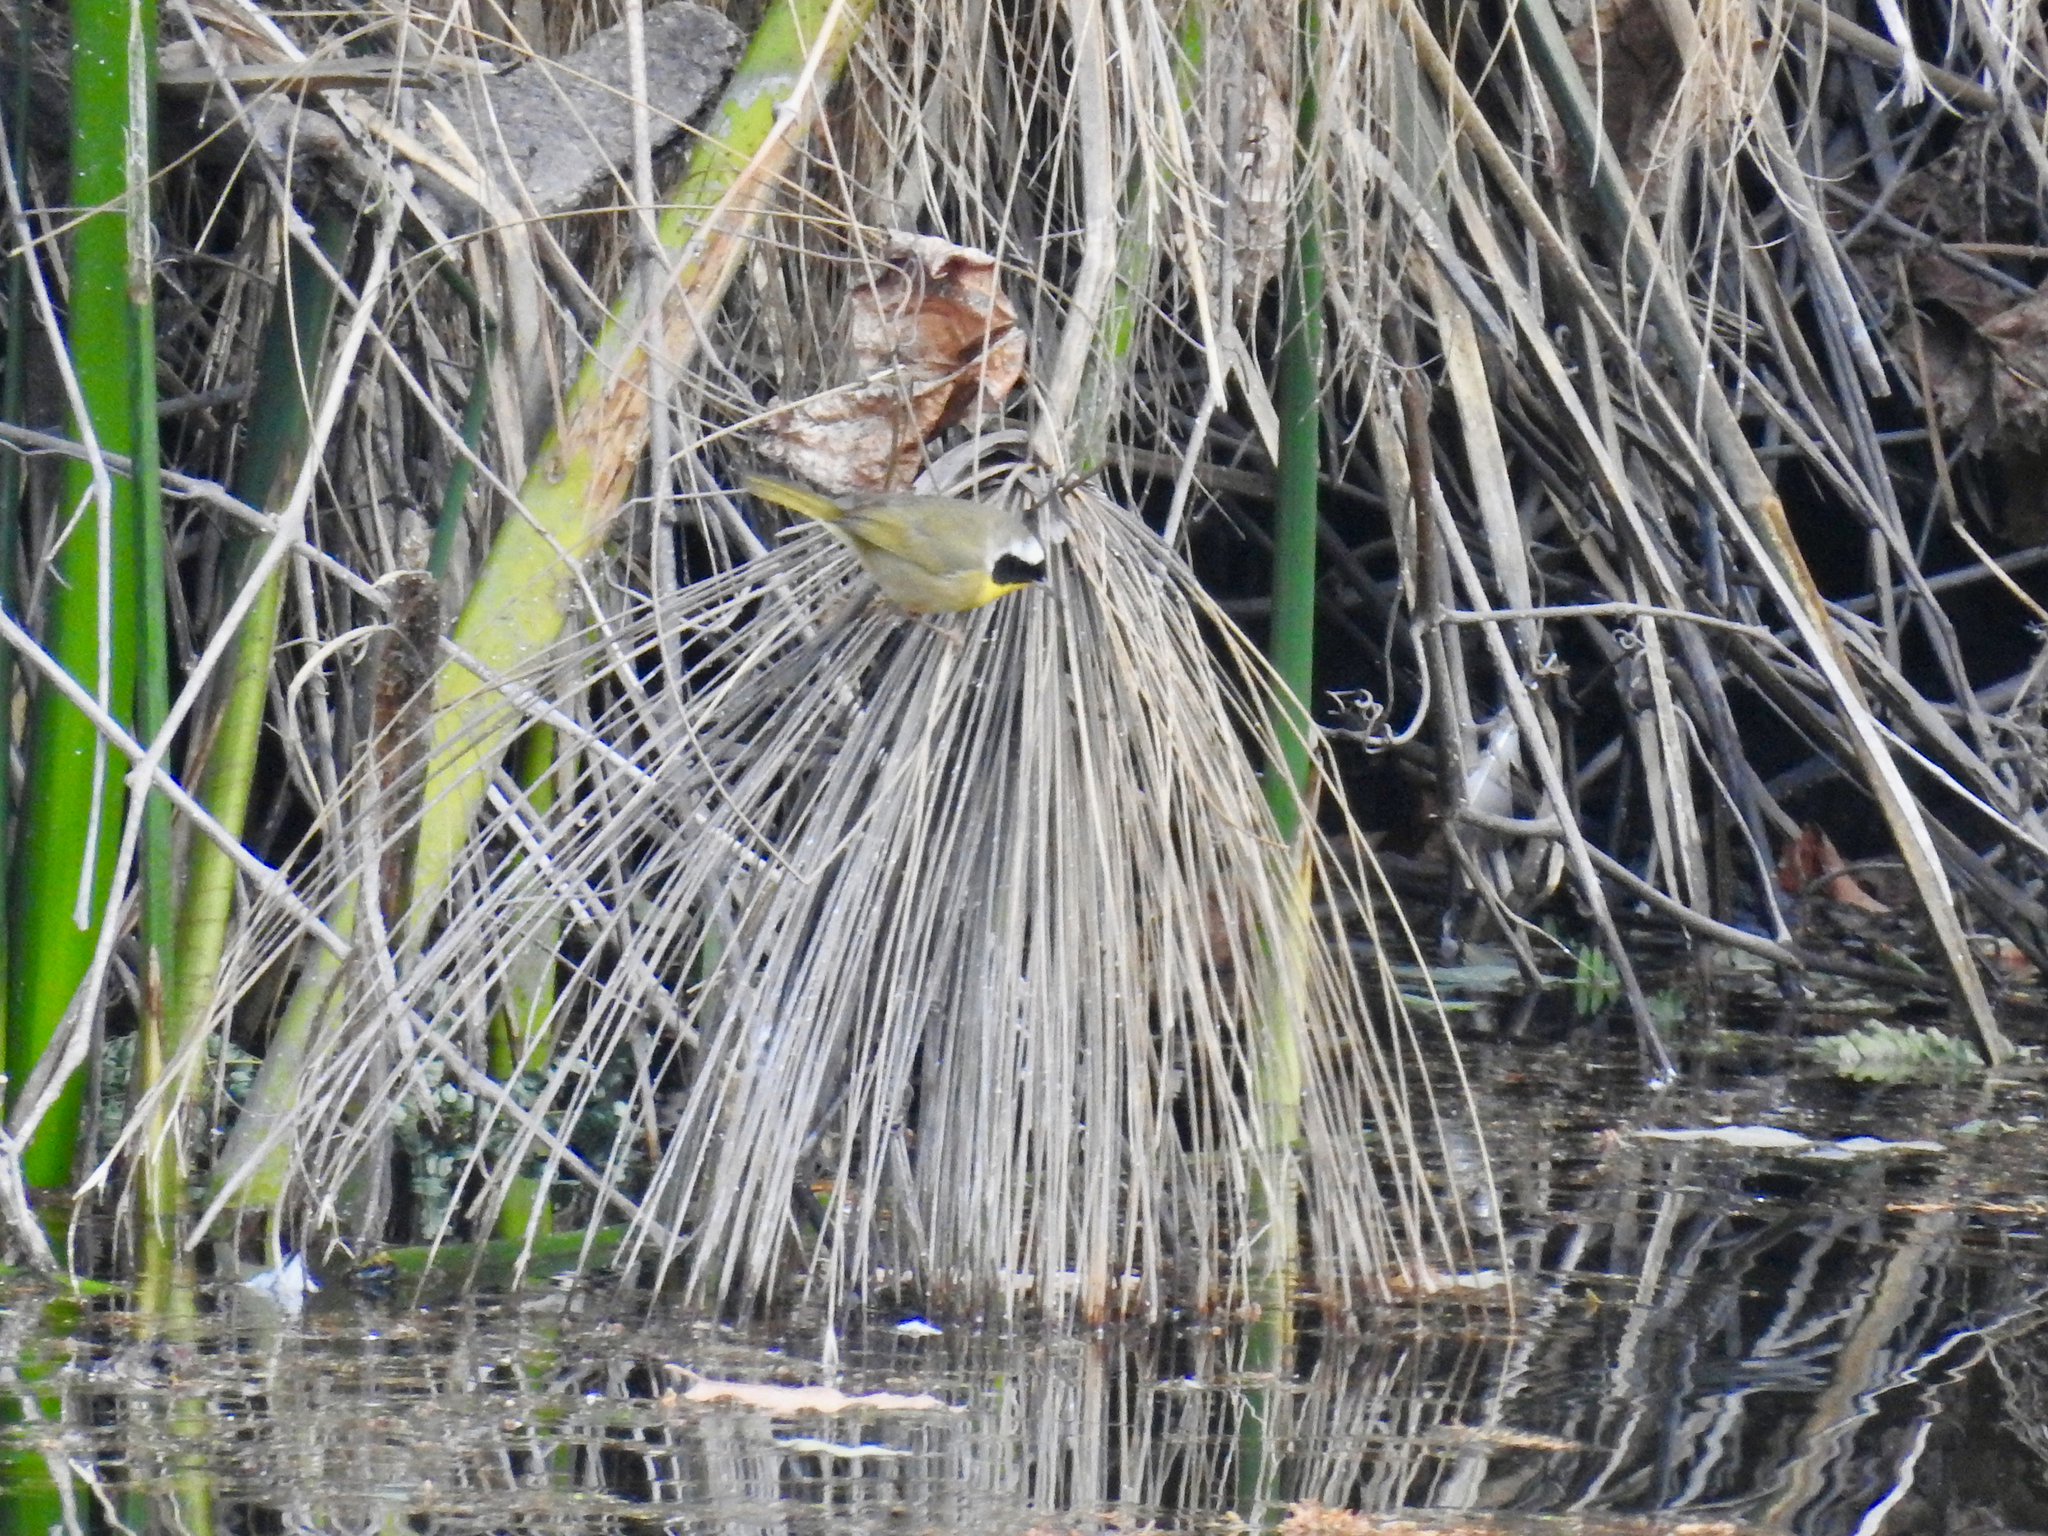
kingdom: Animalia
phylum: Chordata
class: Aves
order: Passeriformes
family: Parulidae
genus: Geothlypis
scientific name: Geothlypis trichas
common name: Common yellowthroat
